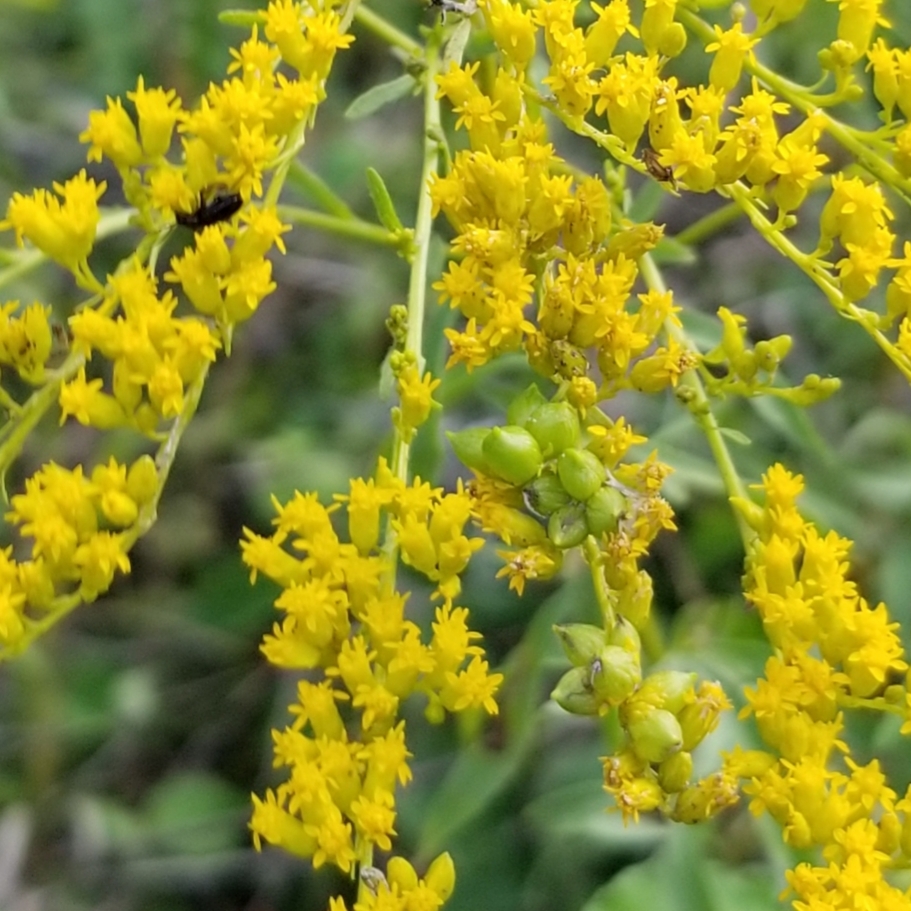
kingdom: Animalia
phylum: Arthropoda
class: Insecta
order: Diptera
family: Cecidomyiidae
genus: Schizomyia
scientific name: Schizomyia racemicola
